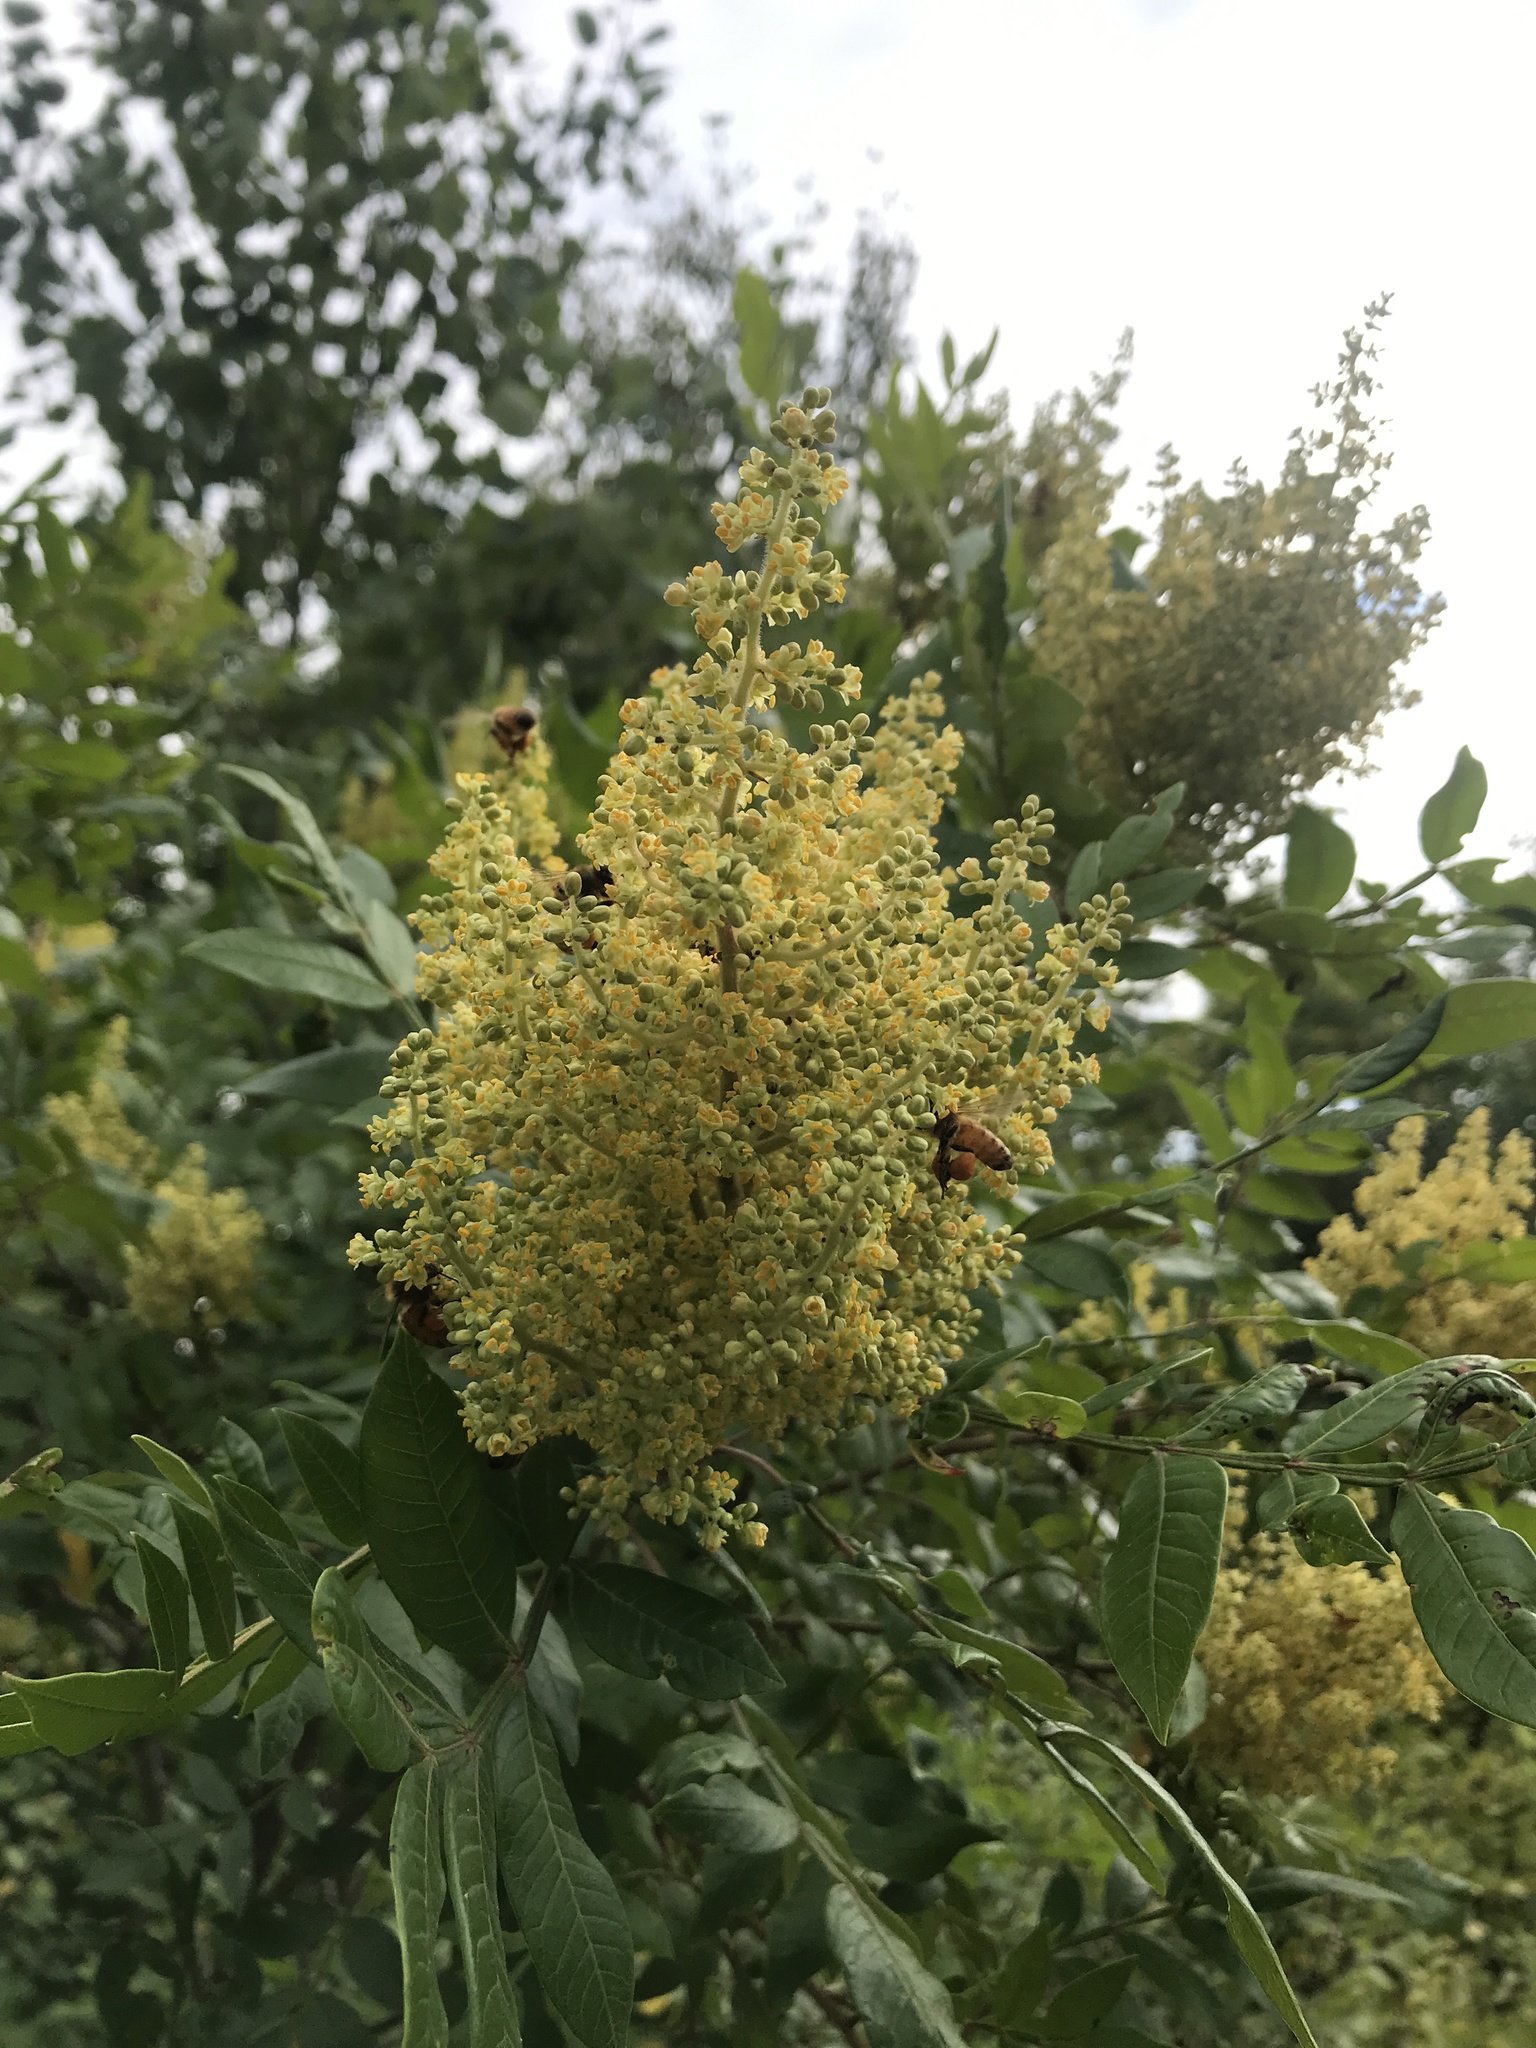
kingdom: Plantae
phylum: Tracheophyta
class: Magnoliopsida
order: Sapindales
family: Anacardiaceae
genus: Rhus
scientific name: Rhus copallina
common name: Shining sumac
